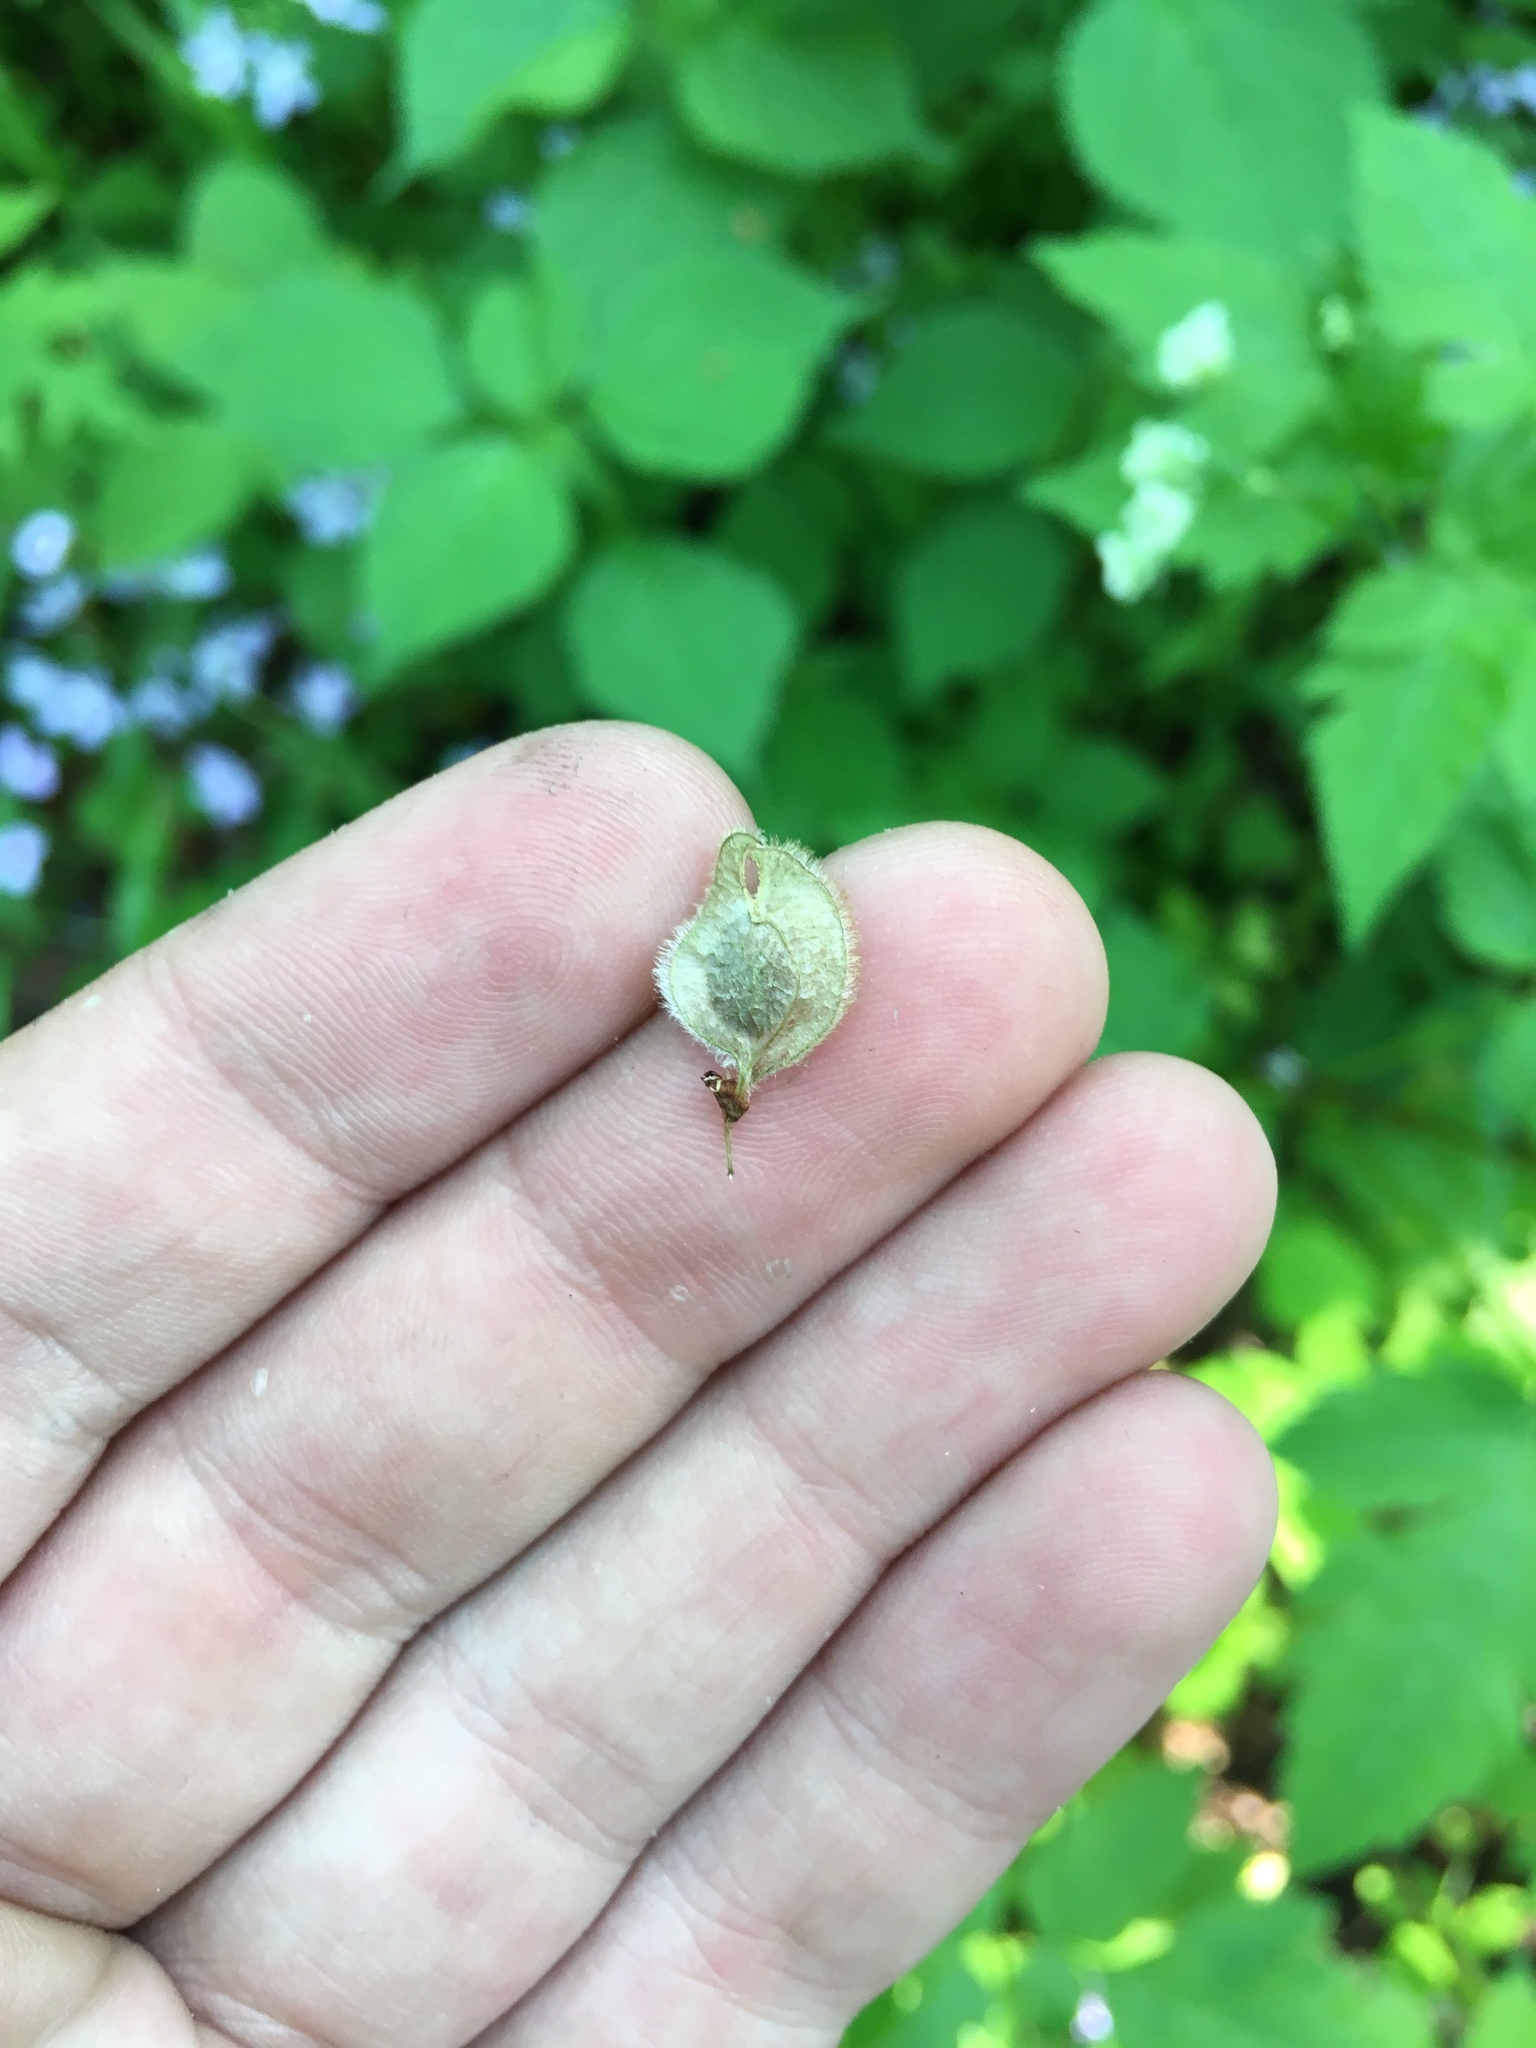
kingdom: Plantae
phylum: Tracheophyta
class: Magnoliopsida
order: Rosales
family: Ulmaceae
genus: Ulmus
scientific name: Ulmus americana
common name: American elm
